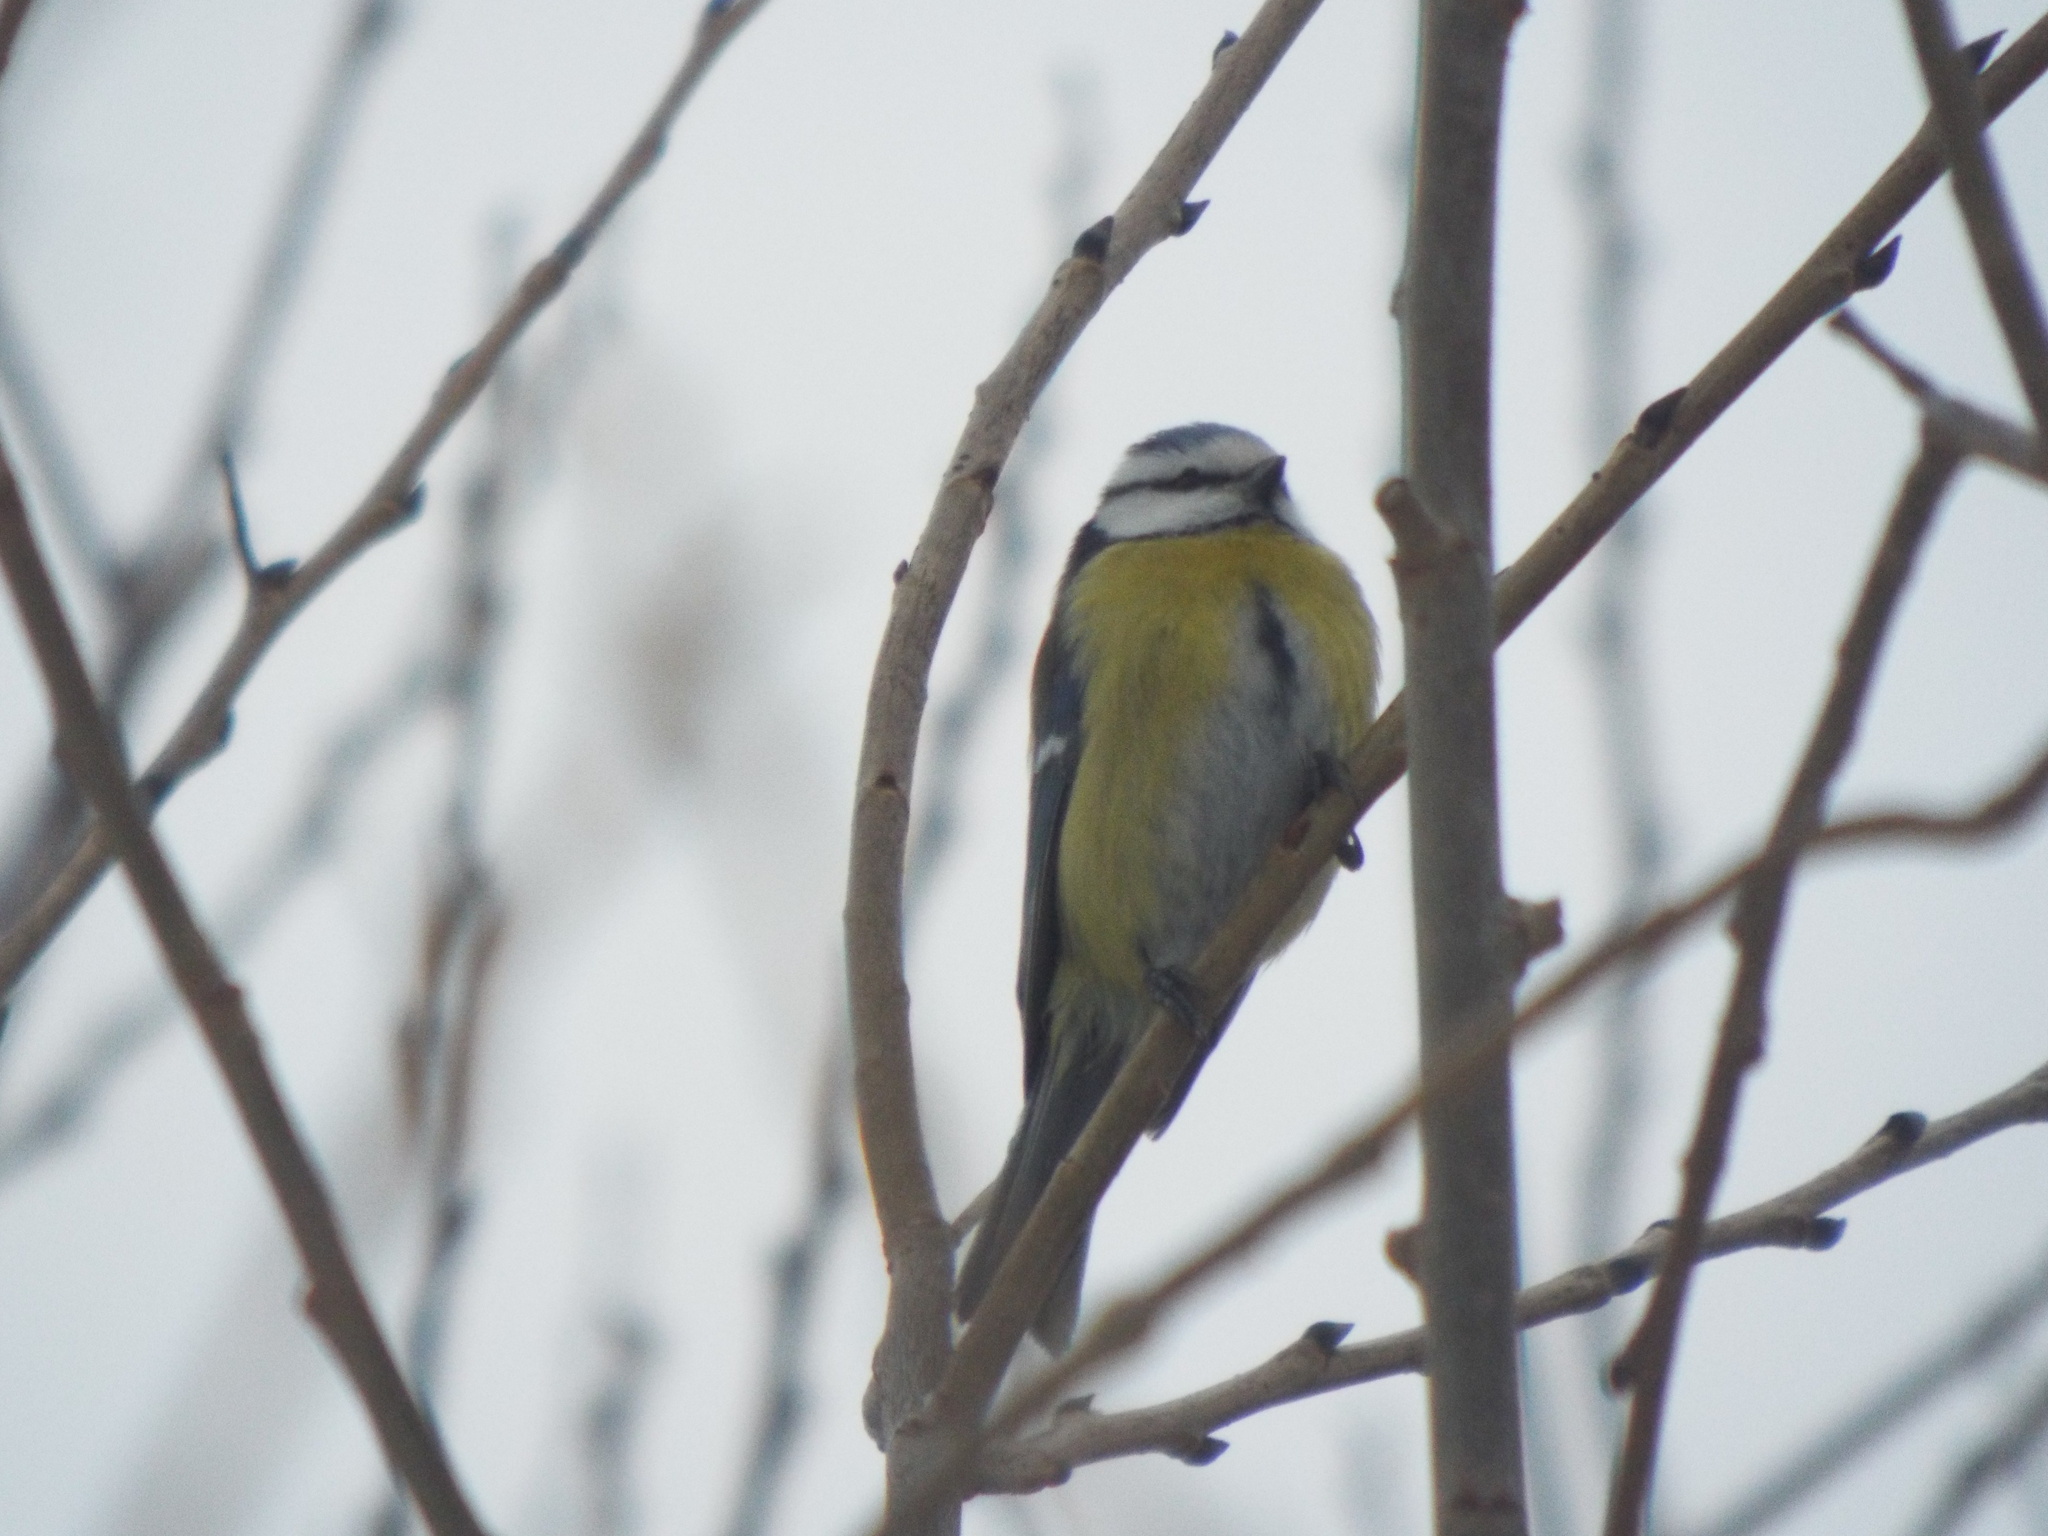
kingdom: Animalia
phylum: Chordata
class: Aves
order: Passeriformes
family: Paridae
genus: Cyanistes
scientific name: Cyanistes caeruleus
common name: Eurasian blue tit
